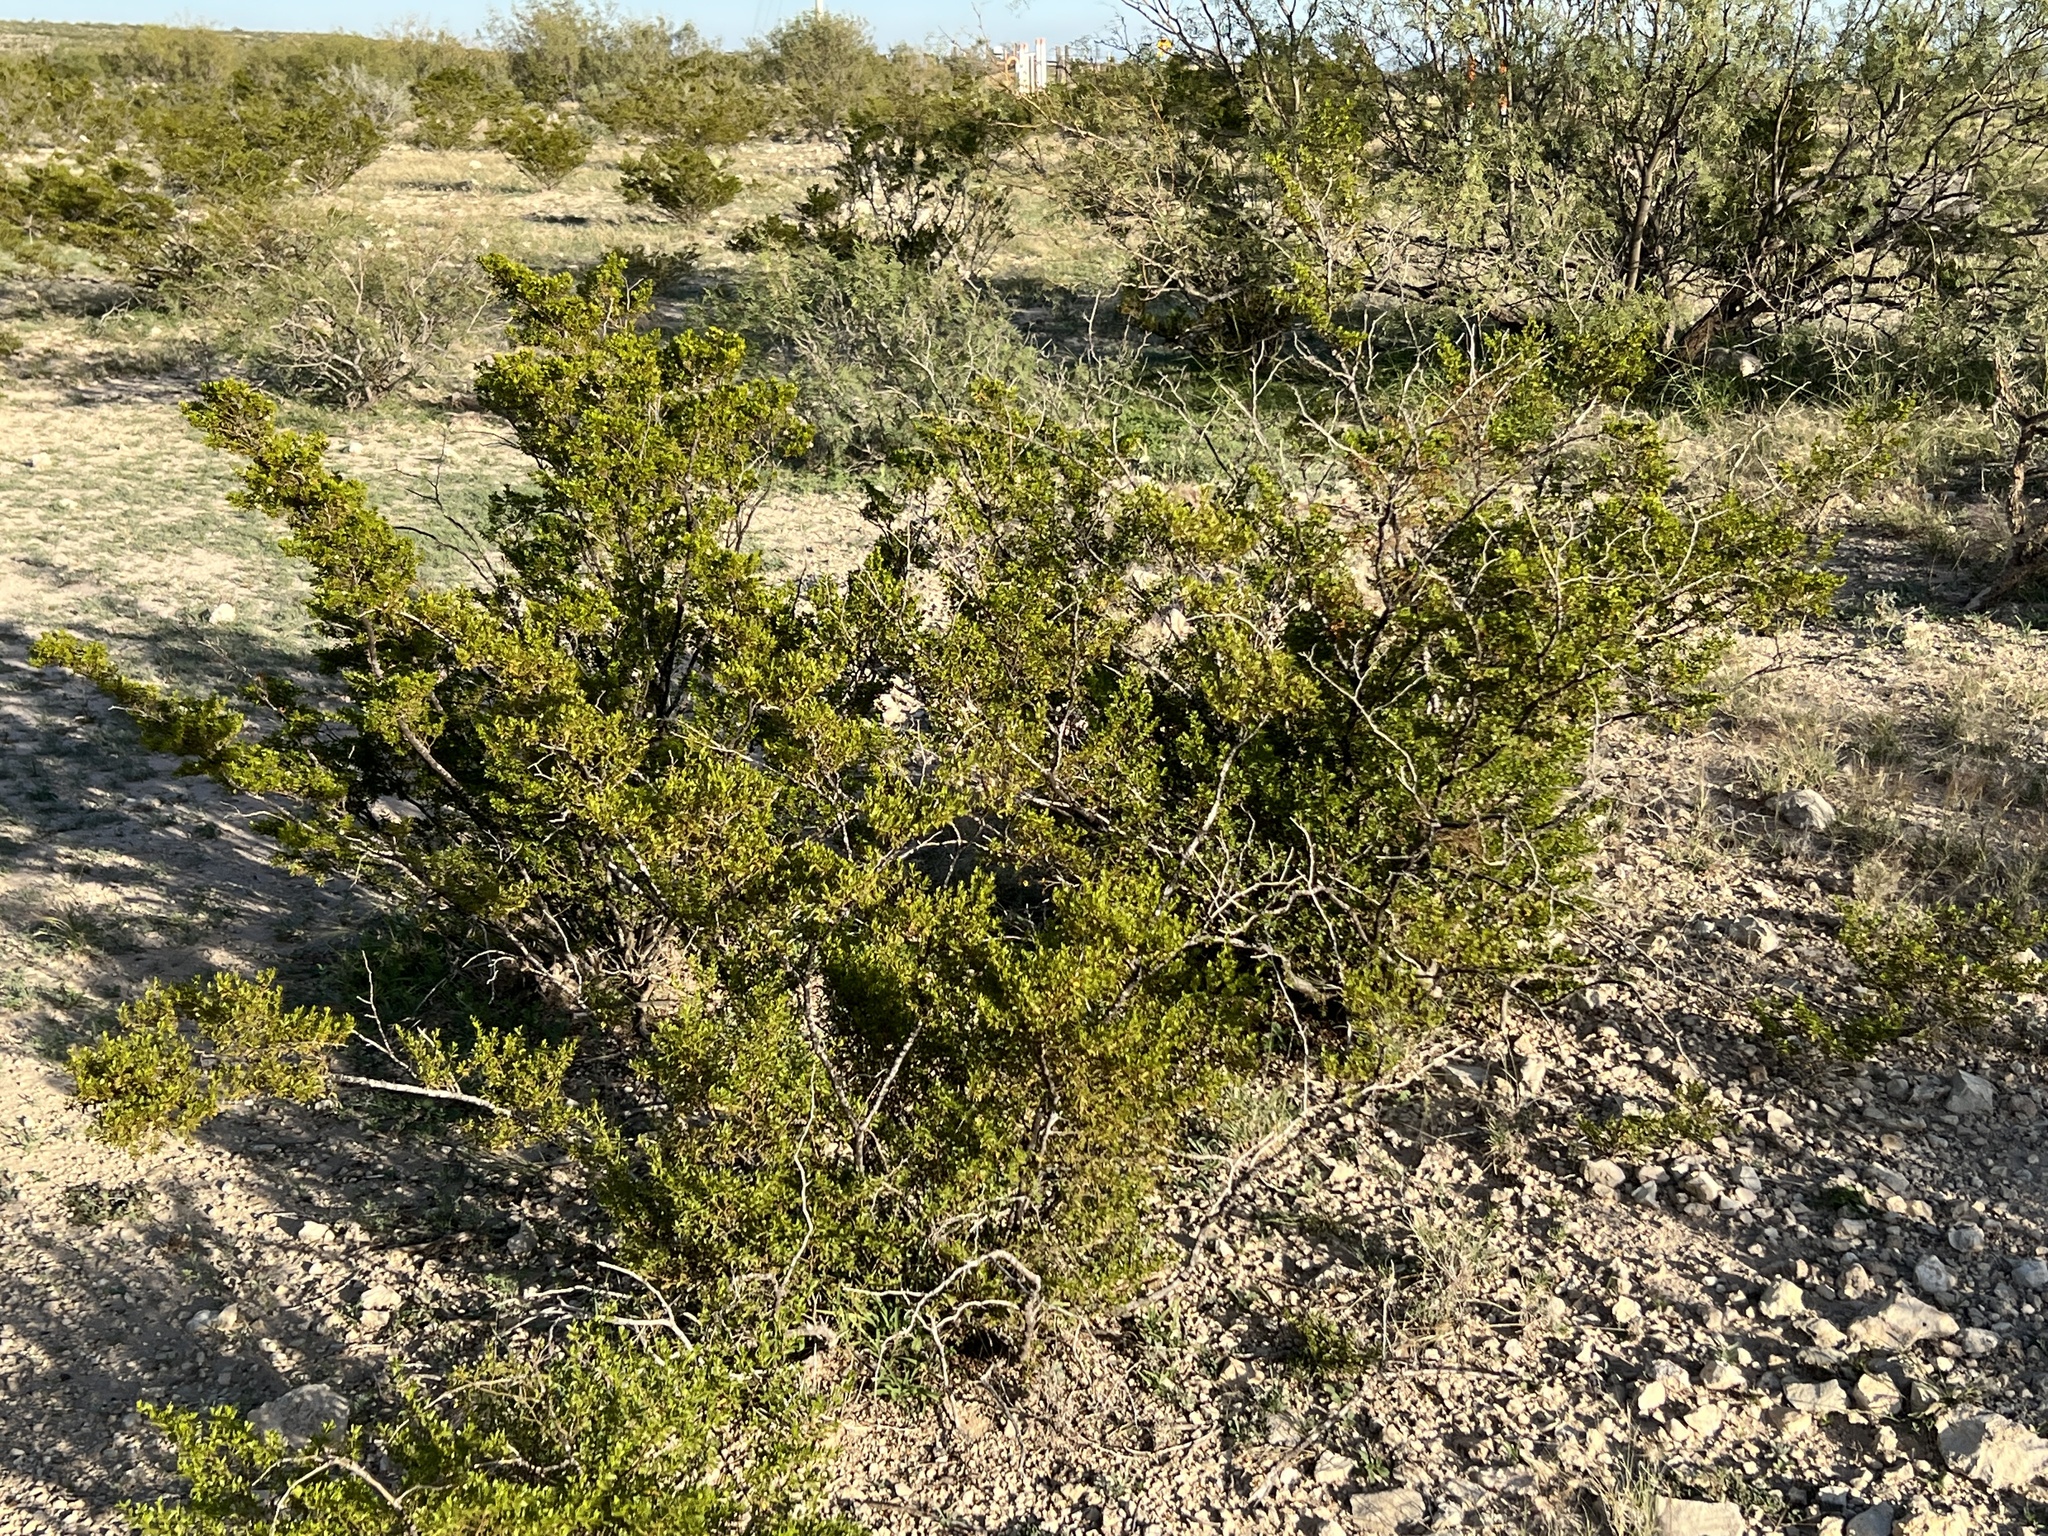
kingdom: Plantae
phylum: Tracheophyta
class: Magnoliopsida
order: Zygophyllales
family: Zygophyllaceae
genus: Larrea
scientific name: Larrea tridentata
